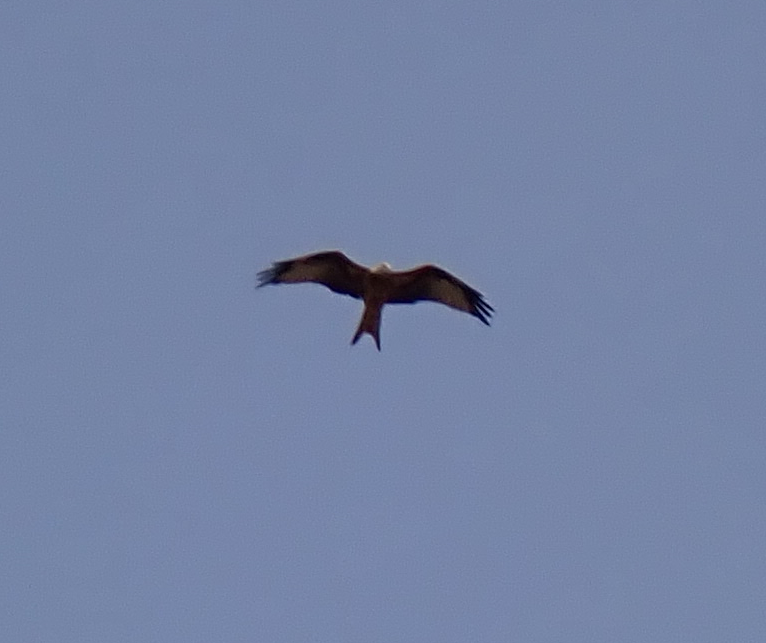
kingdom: Animalia
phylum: Chordata
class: Aves
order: Accipitriformes
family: Accipitridae
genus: Milvus
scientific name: Milvus milvus
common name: Red kite
